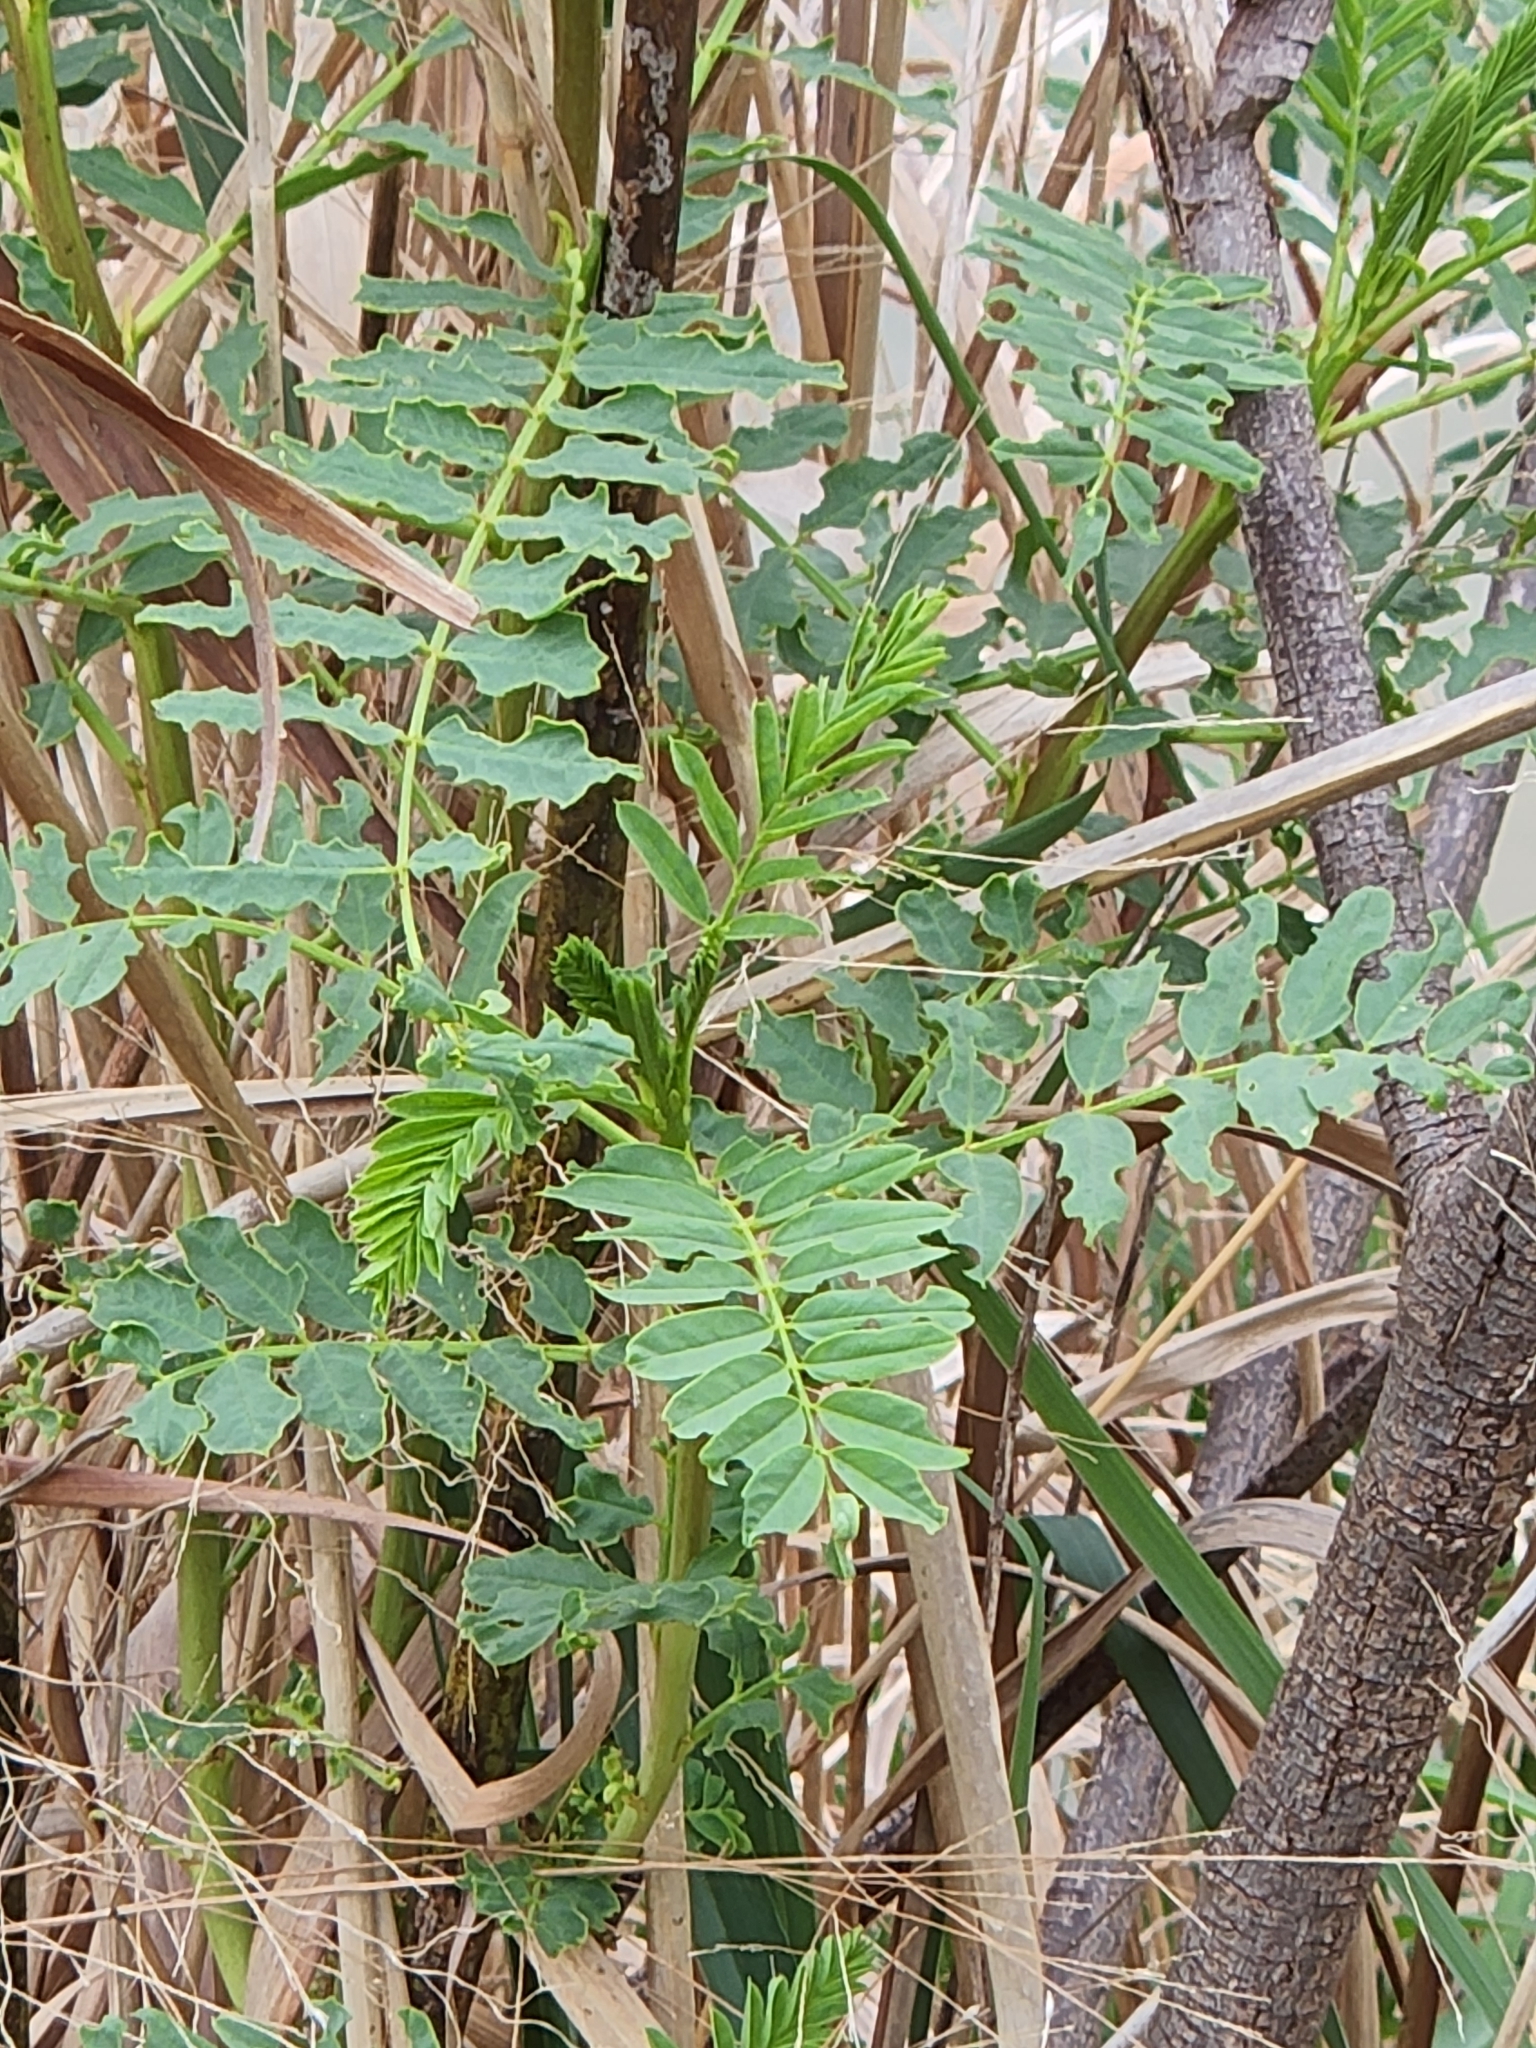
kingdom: Plantae
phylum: Tracheophyta
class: Magnoliopsida
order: Fabales
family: Fabaceae
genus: Sesbania
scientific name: Sesbania drummondii
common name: Poison-bean
